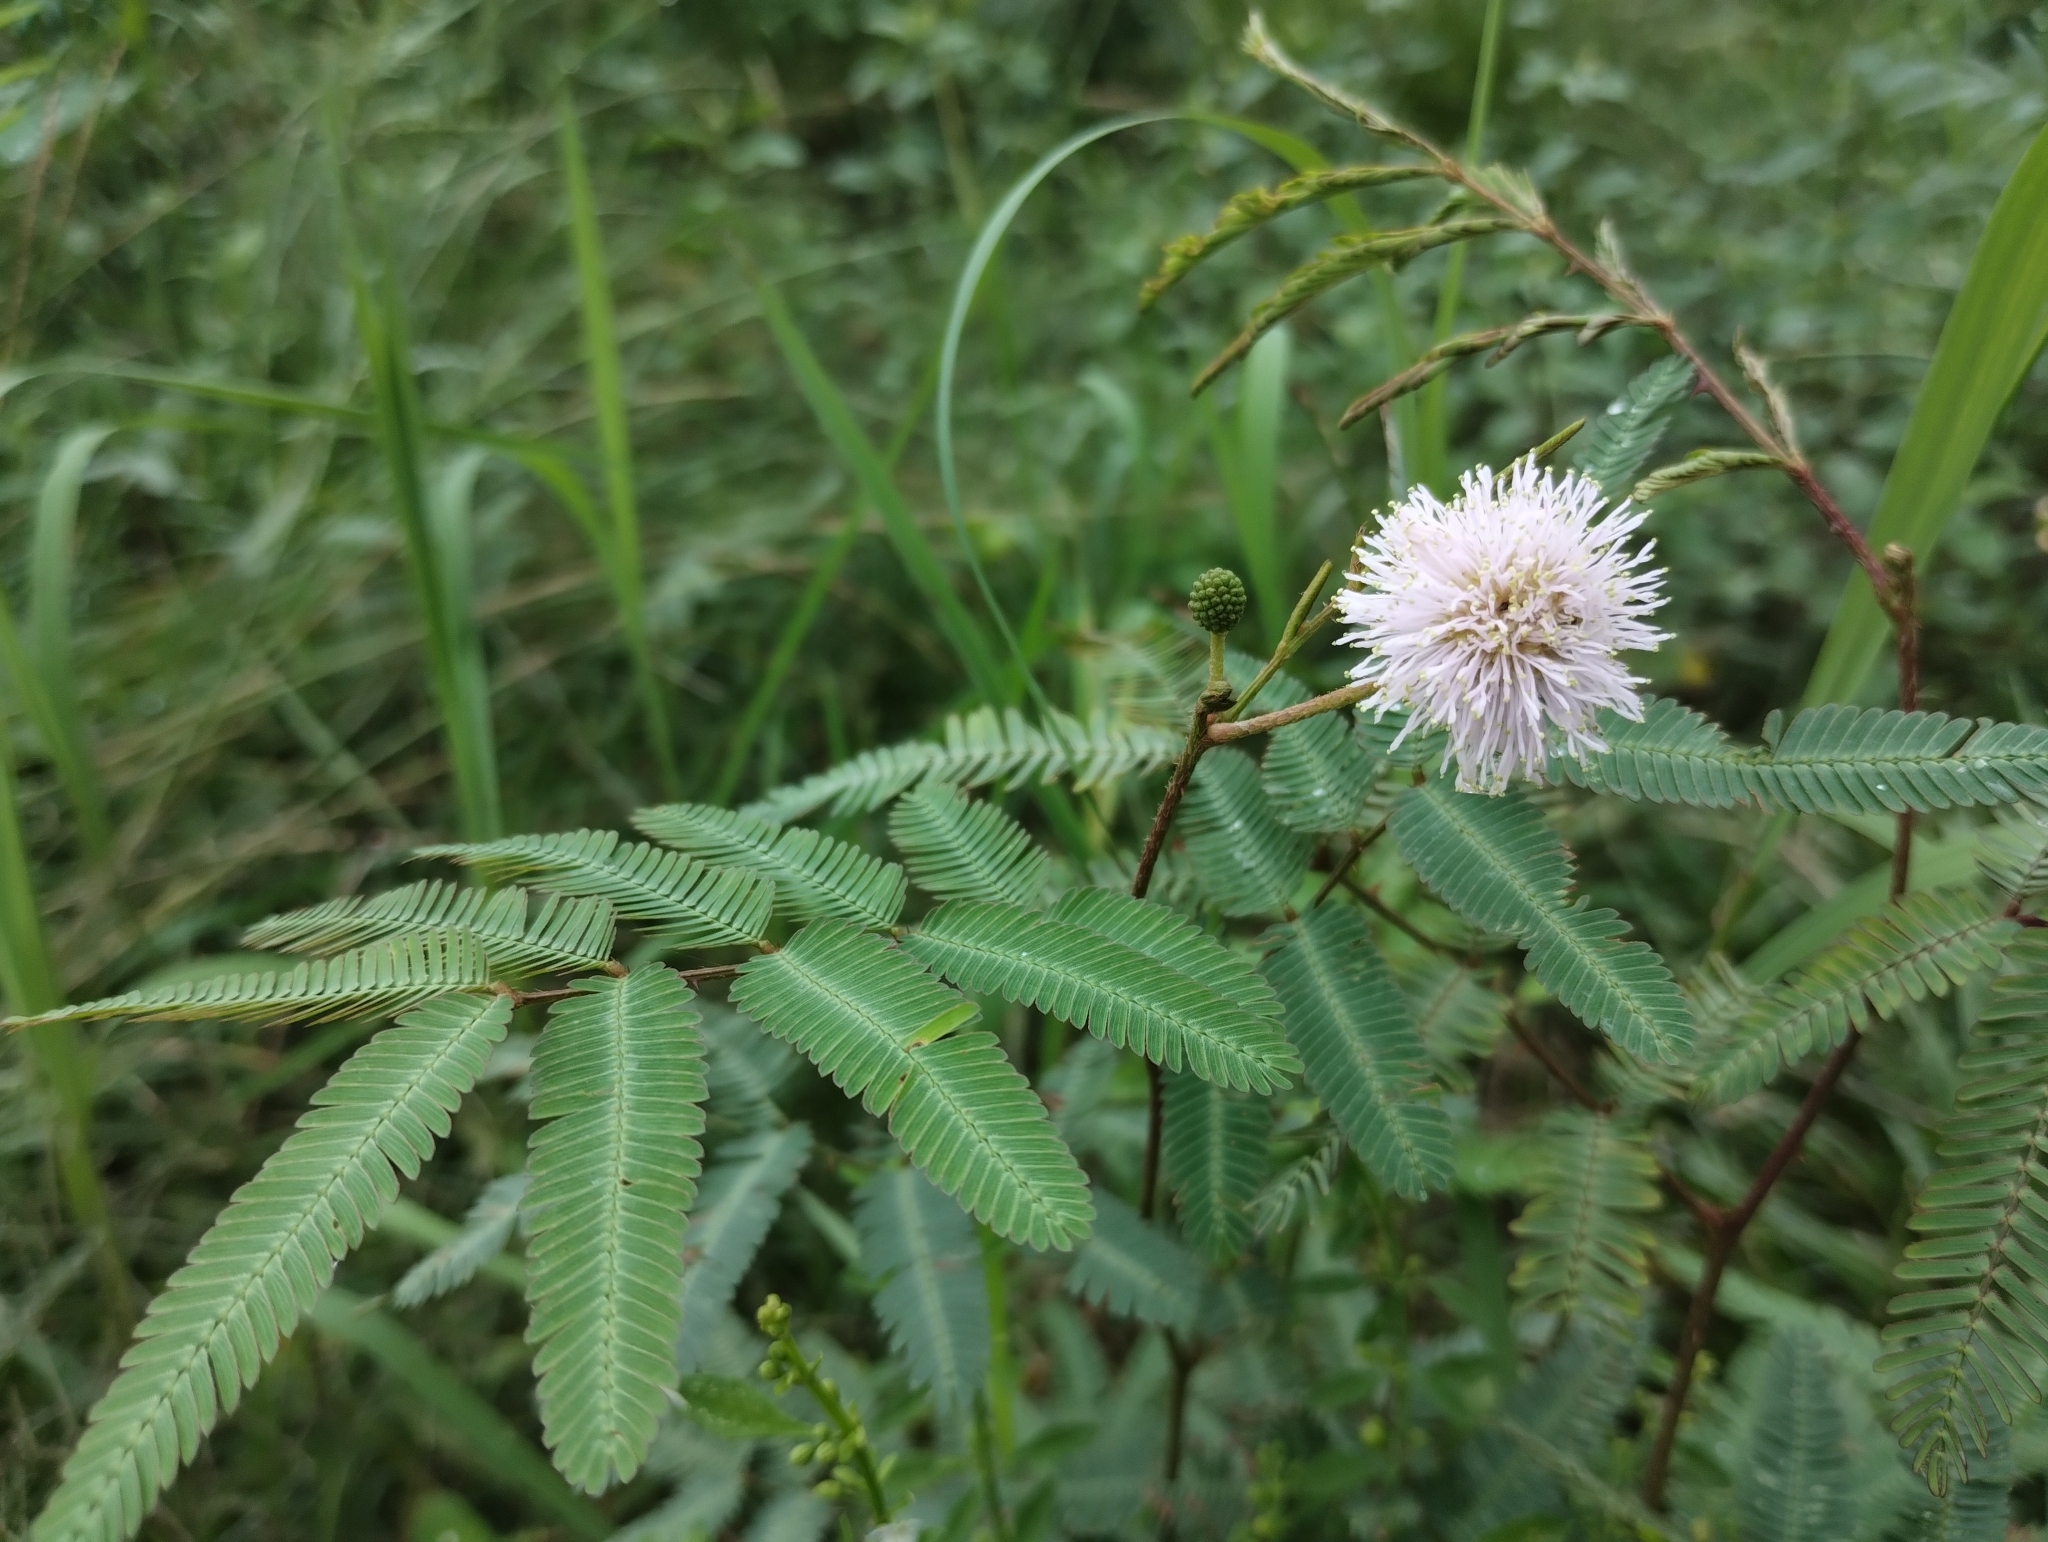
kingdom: Plantae
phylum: Tracheophyta
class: Magnoliopsida
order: Fabales
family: Fabaceae
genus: Mimosa
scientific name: Mimosa tweedieana
